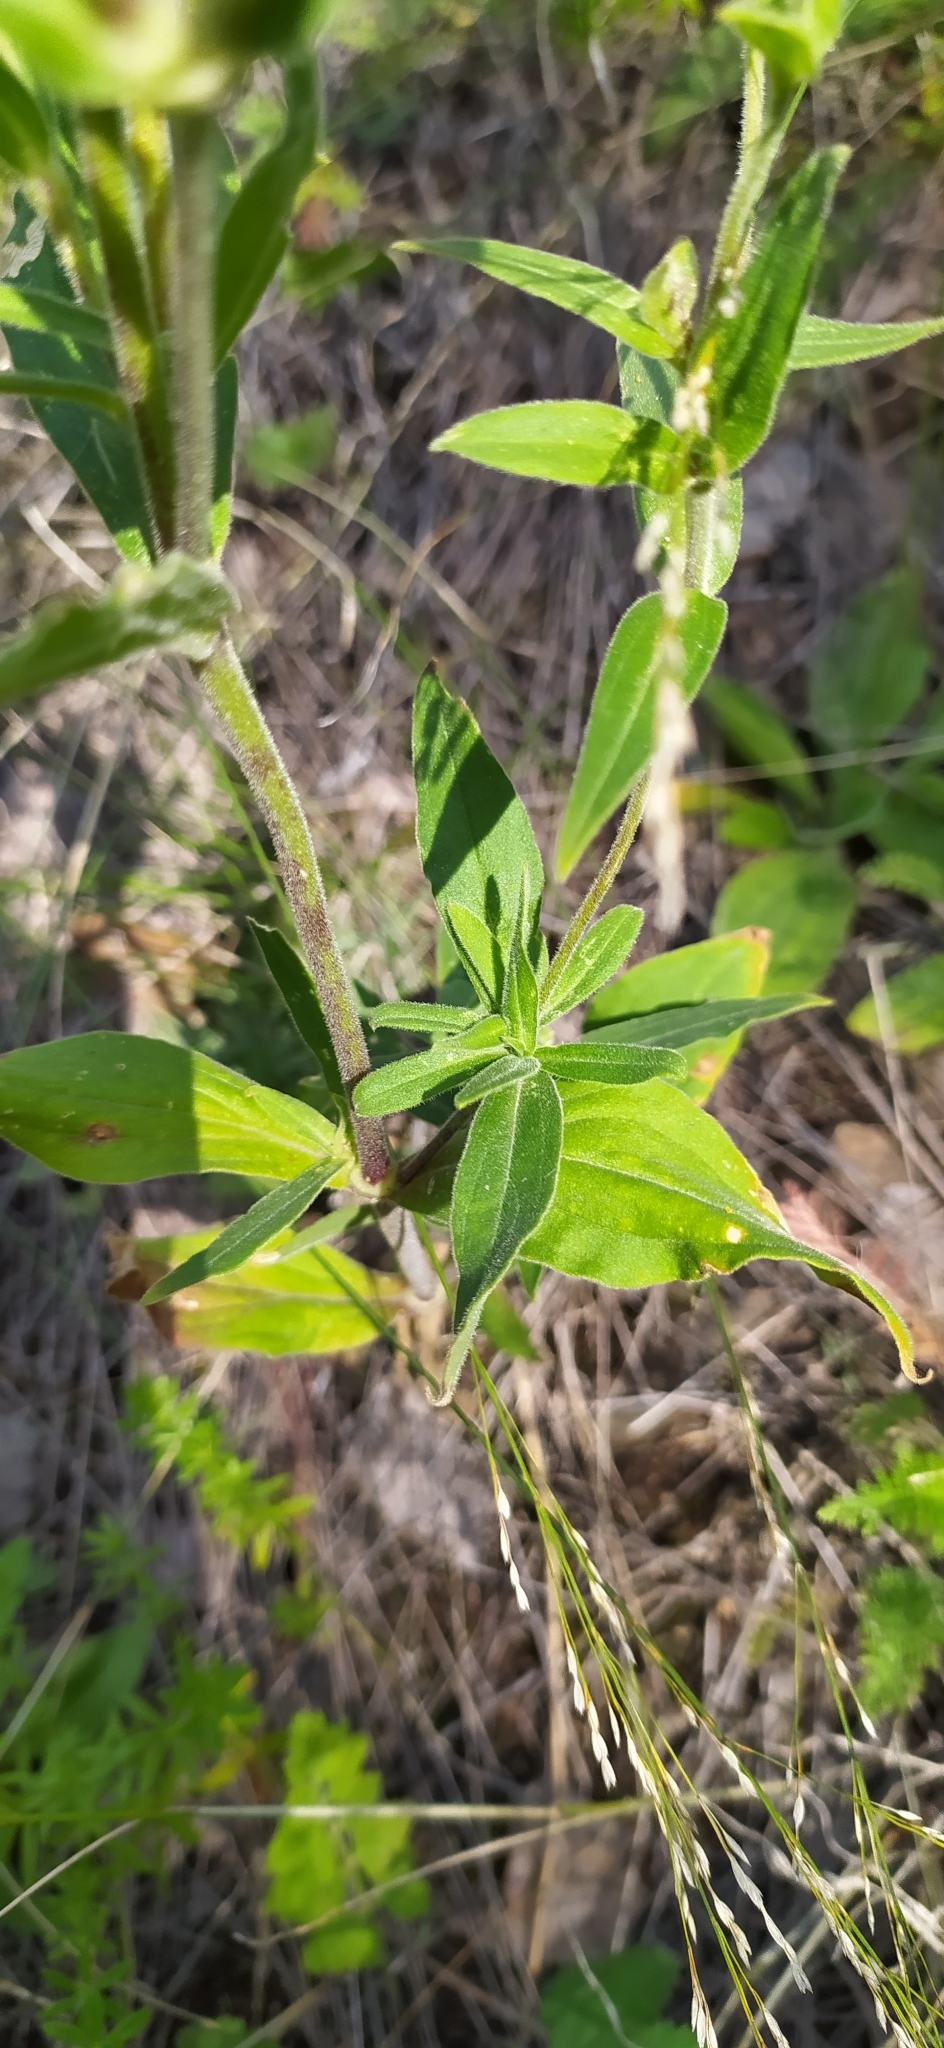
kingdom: Plantae
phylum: Tracheophyta
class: Magnoliopsida
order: Caryophyllales
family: Caryophyllaceae
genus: Silene
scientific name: Silene latifolia
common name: White campion
